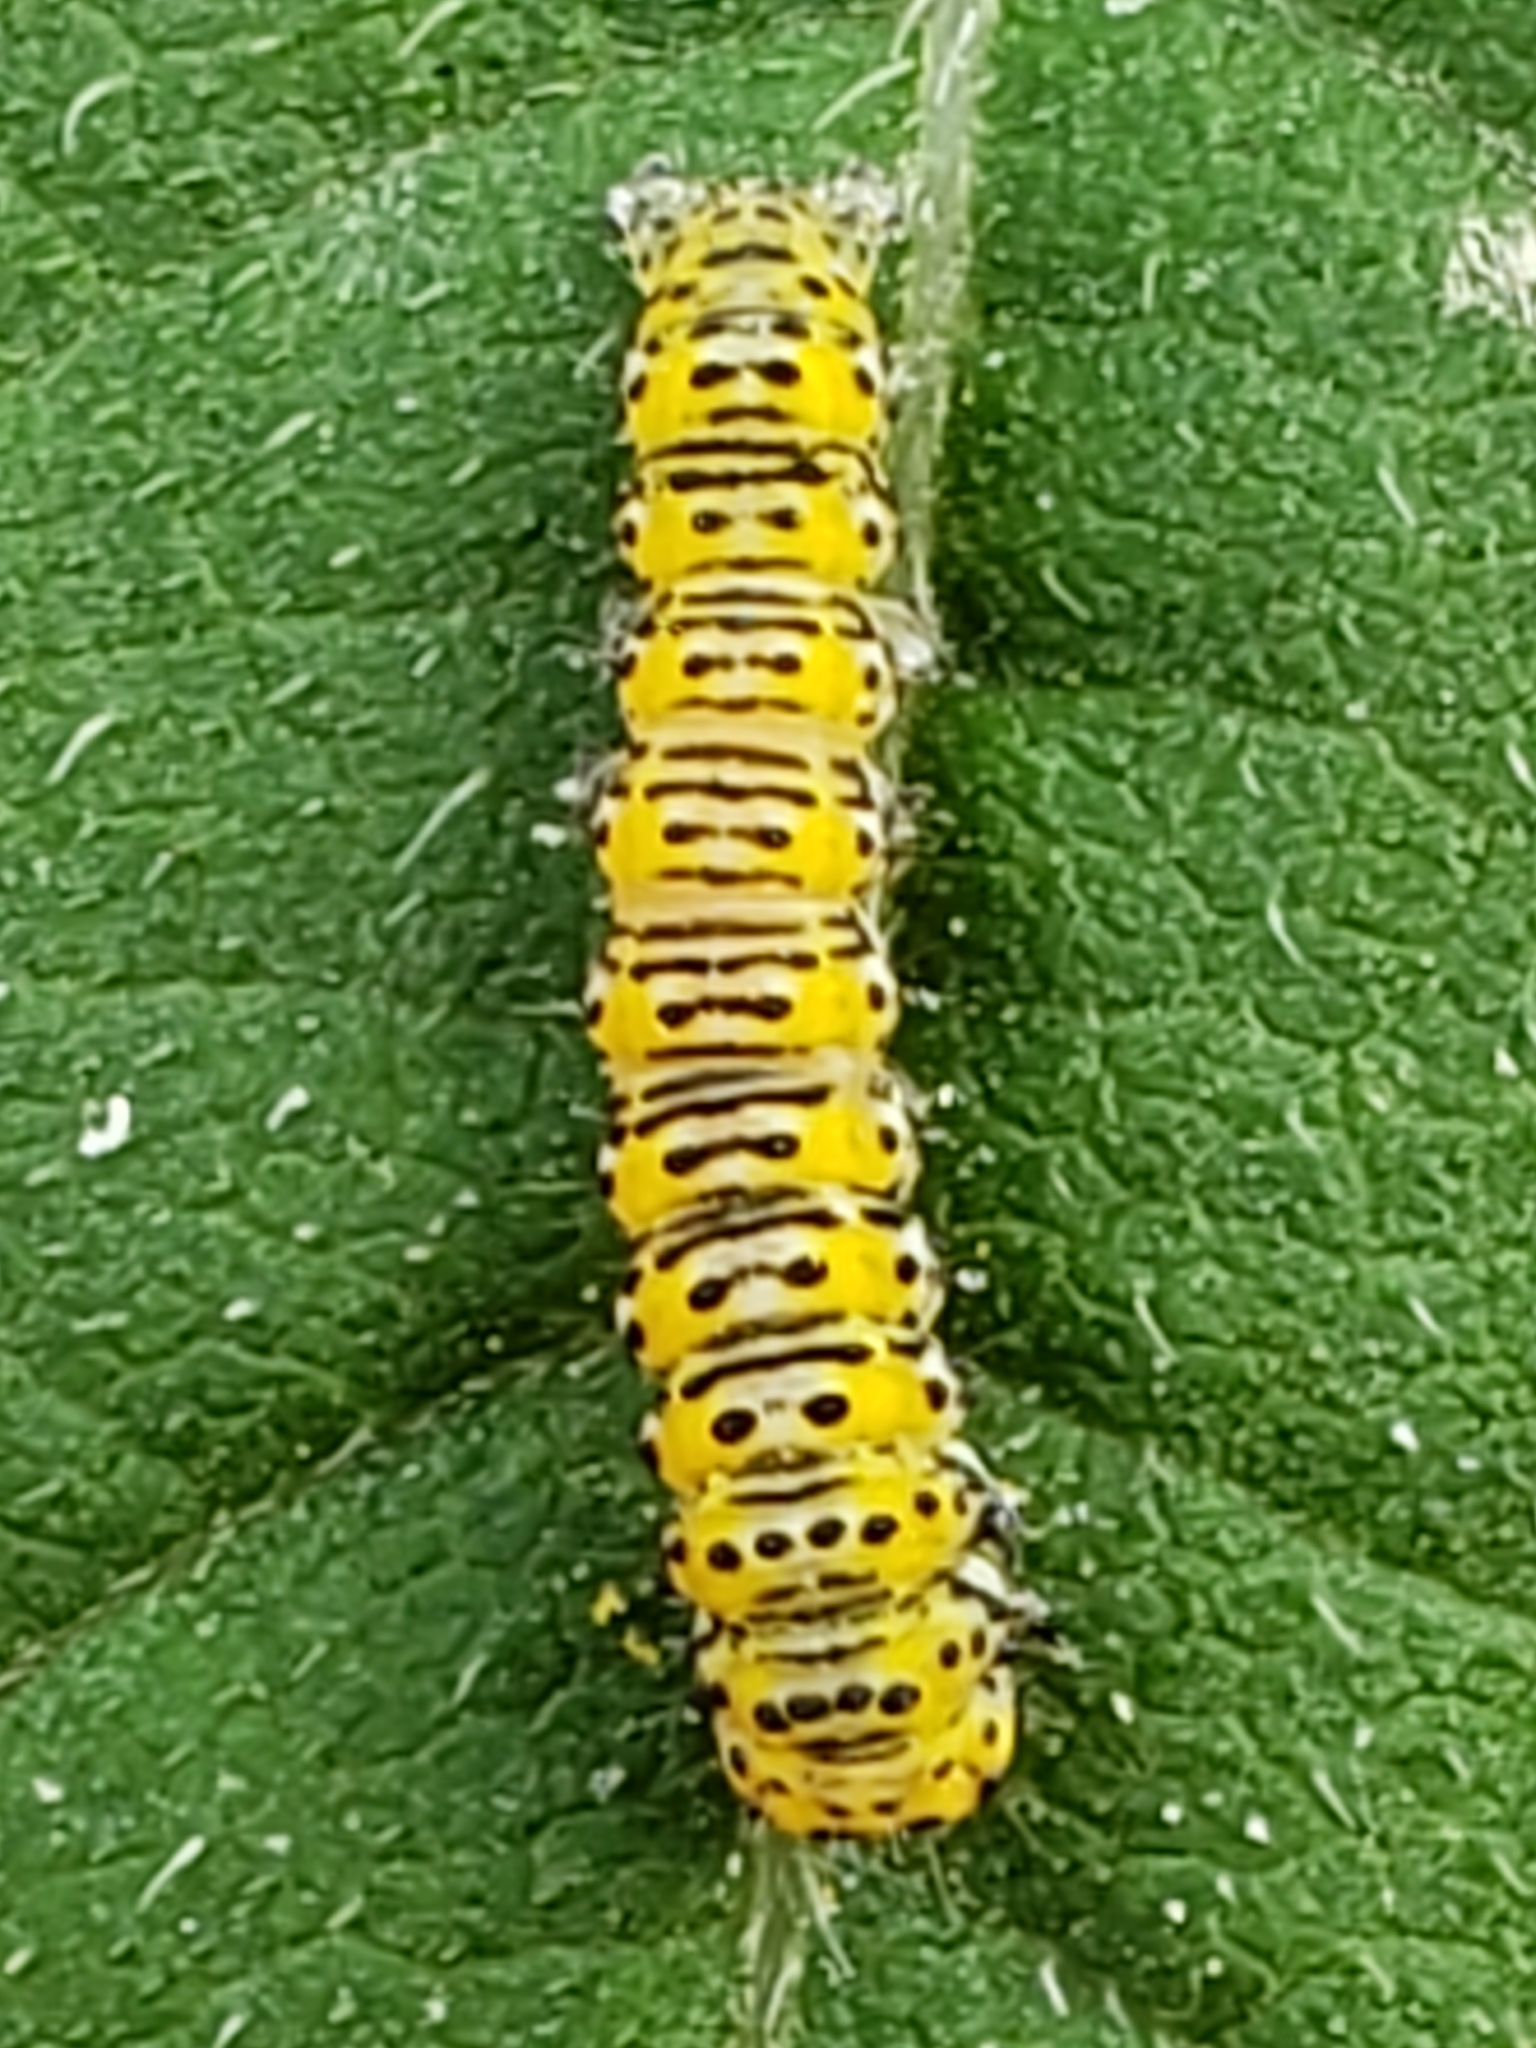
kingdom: Animalia
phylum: Arthropoda
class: Insecta
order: Lepidoptera
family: Noctuidae
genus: Basilodes
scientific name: Basilodes pepita
